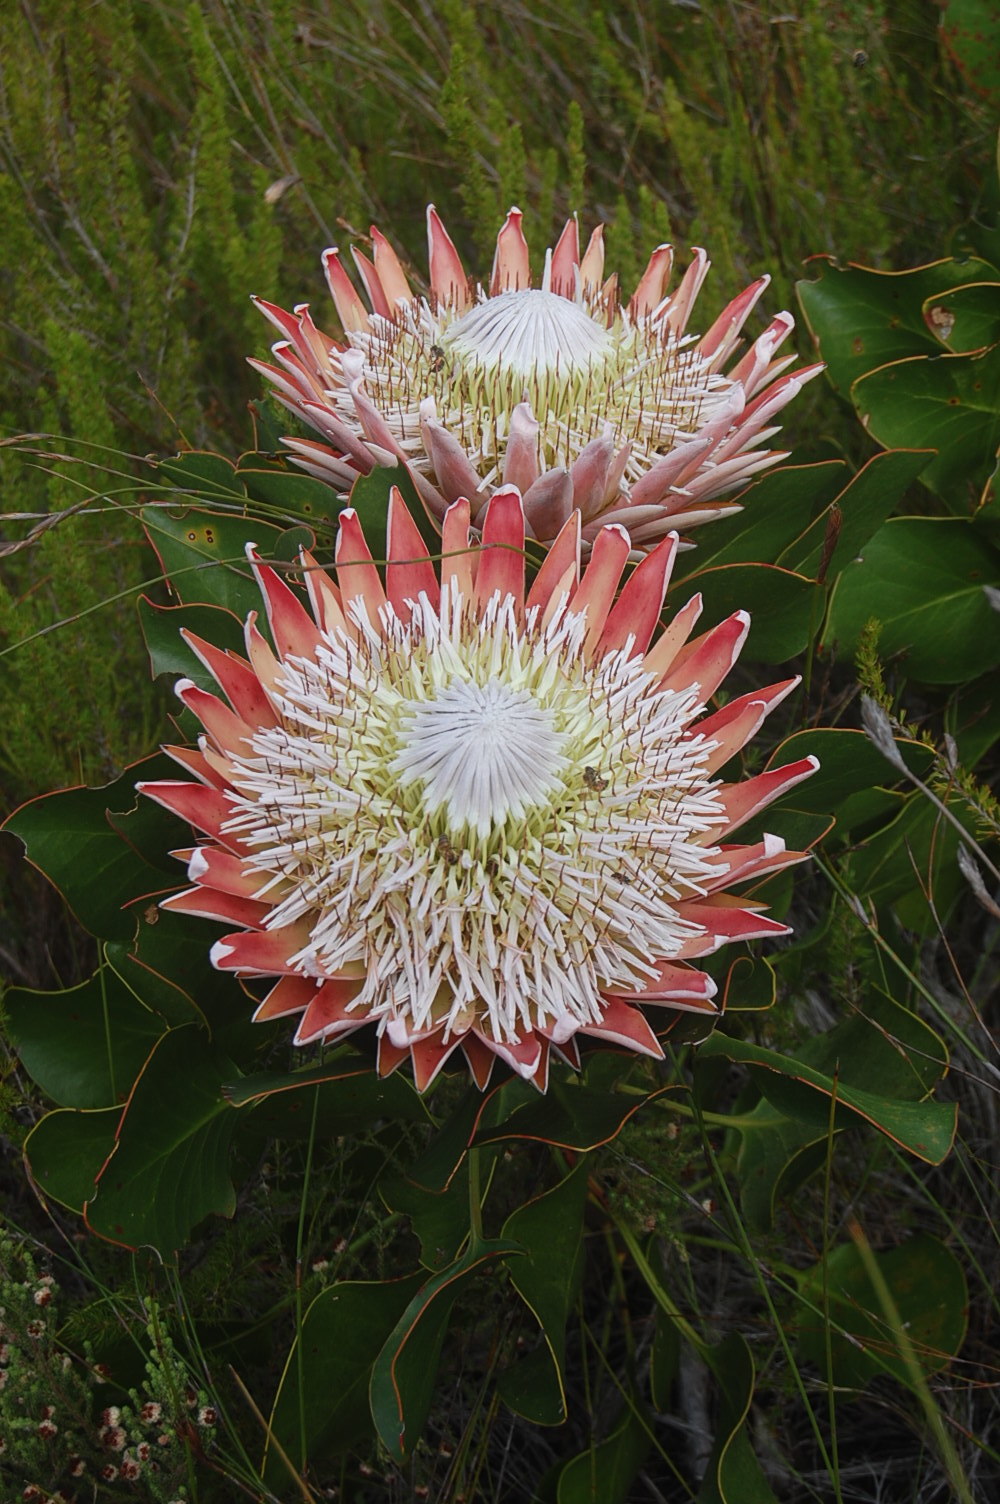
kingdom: Plantae
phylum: Tracheophyta
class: Magnoliopsida
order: Proteales
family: Proteaceae
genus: Protea
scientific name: Protea cynaroides
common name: King protea
